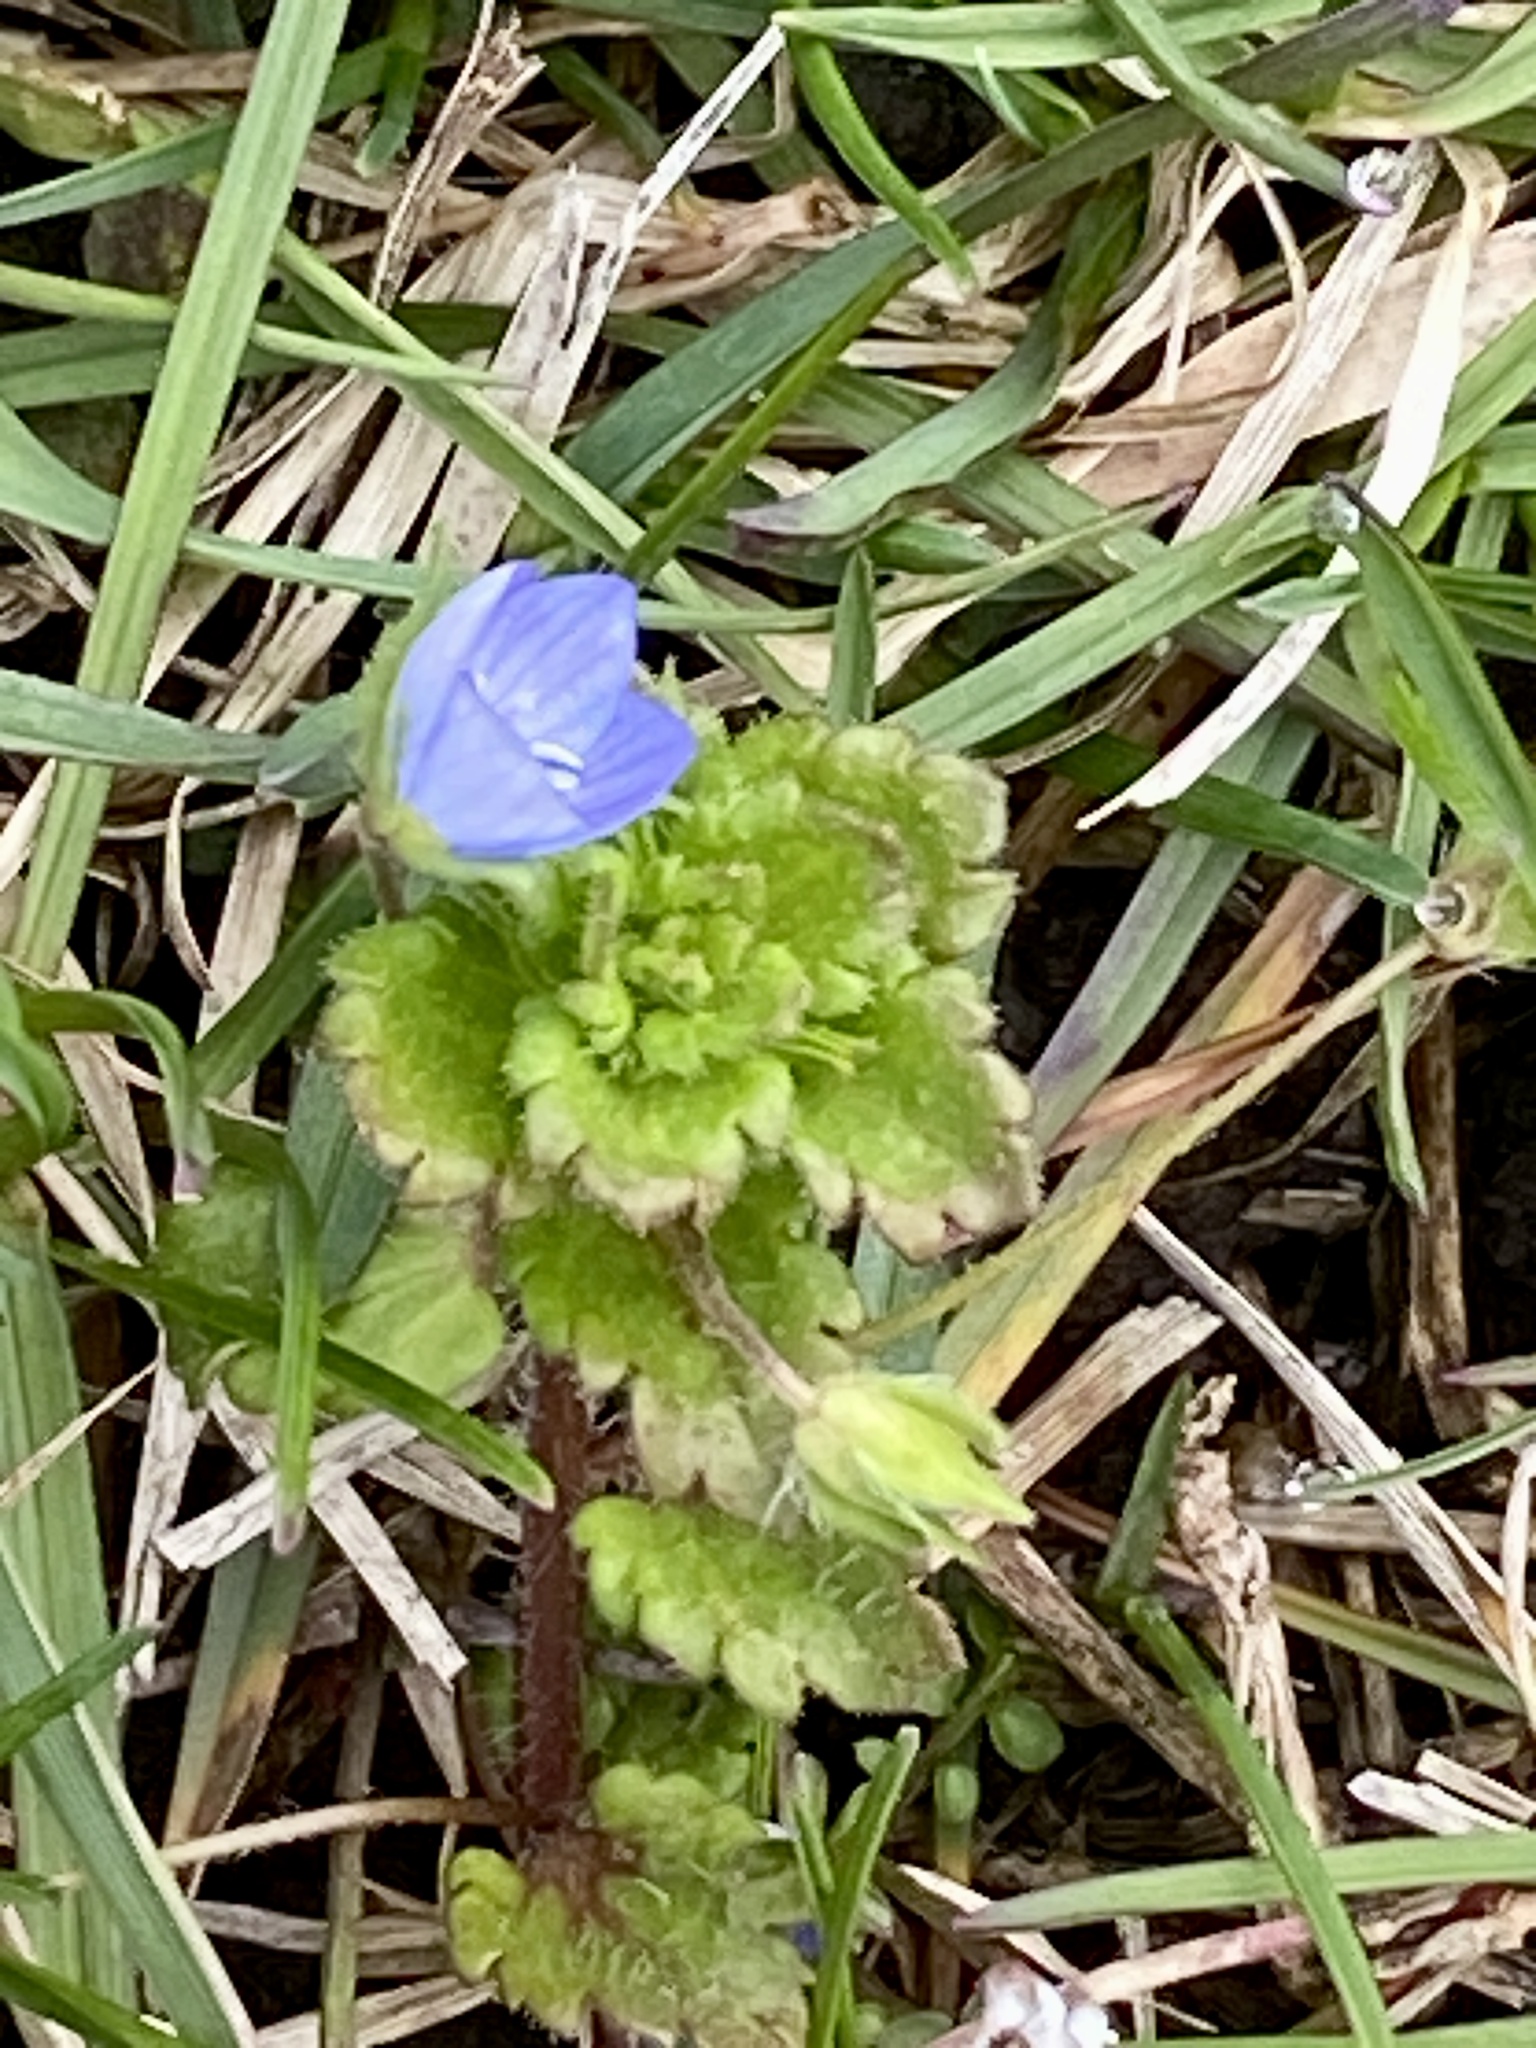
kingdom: Plantae
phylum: Tracheophyta
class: Magnoliopsida
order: Lamiales
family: Plantaginaceae
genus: Veronica
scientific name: Veronica persica
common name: Common field-speedwell
